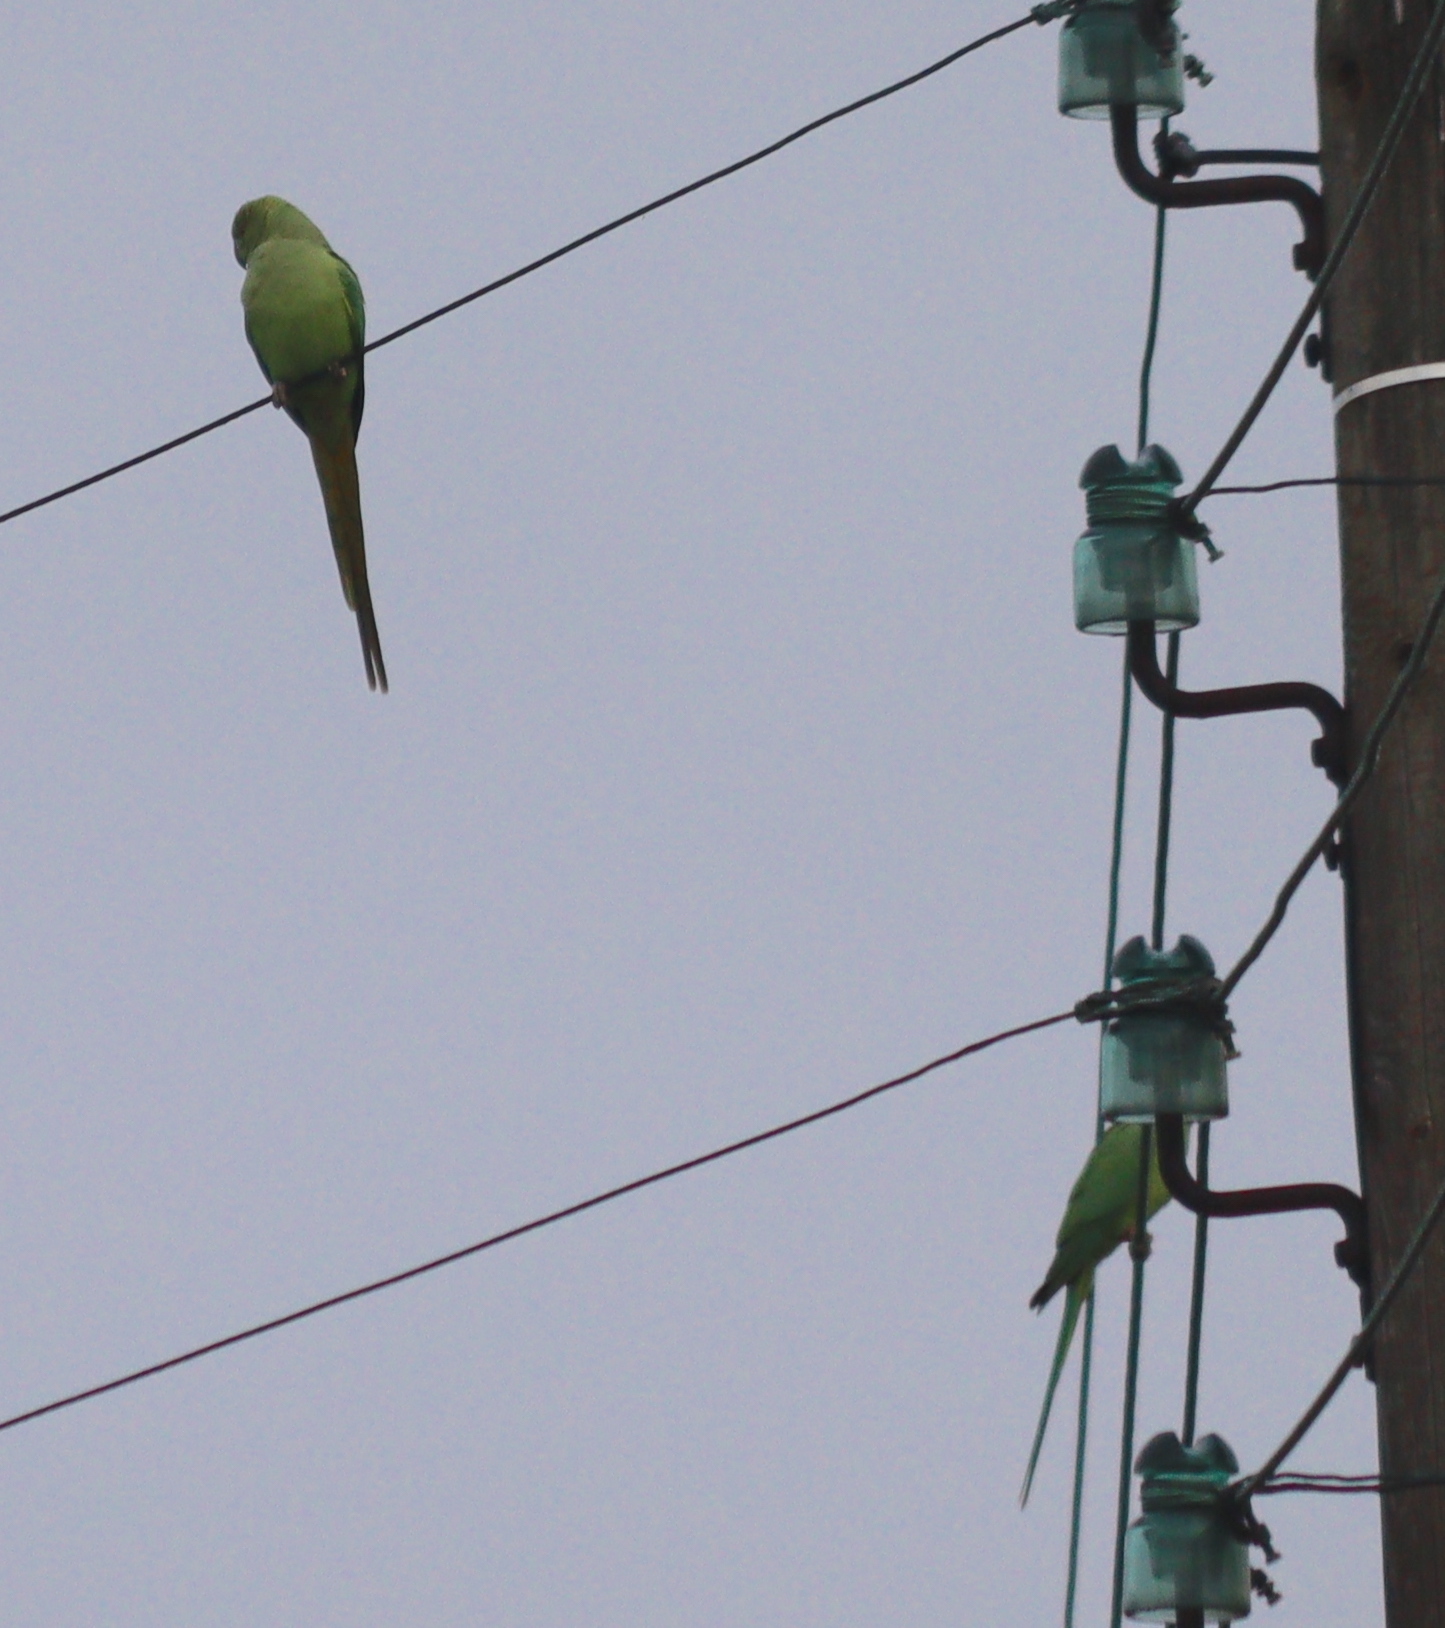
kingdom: Animalia
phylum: Chordata
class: Aves
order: Psittaciformes
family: Psittacidae
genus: Psittacula
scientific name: Psittacula krameri
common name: Rose-ringed parakeet
